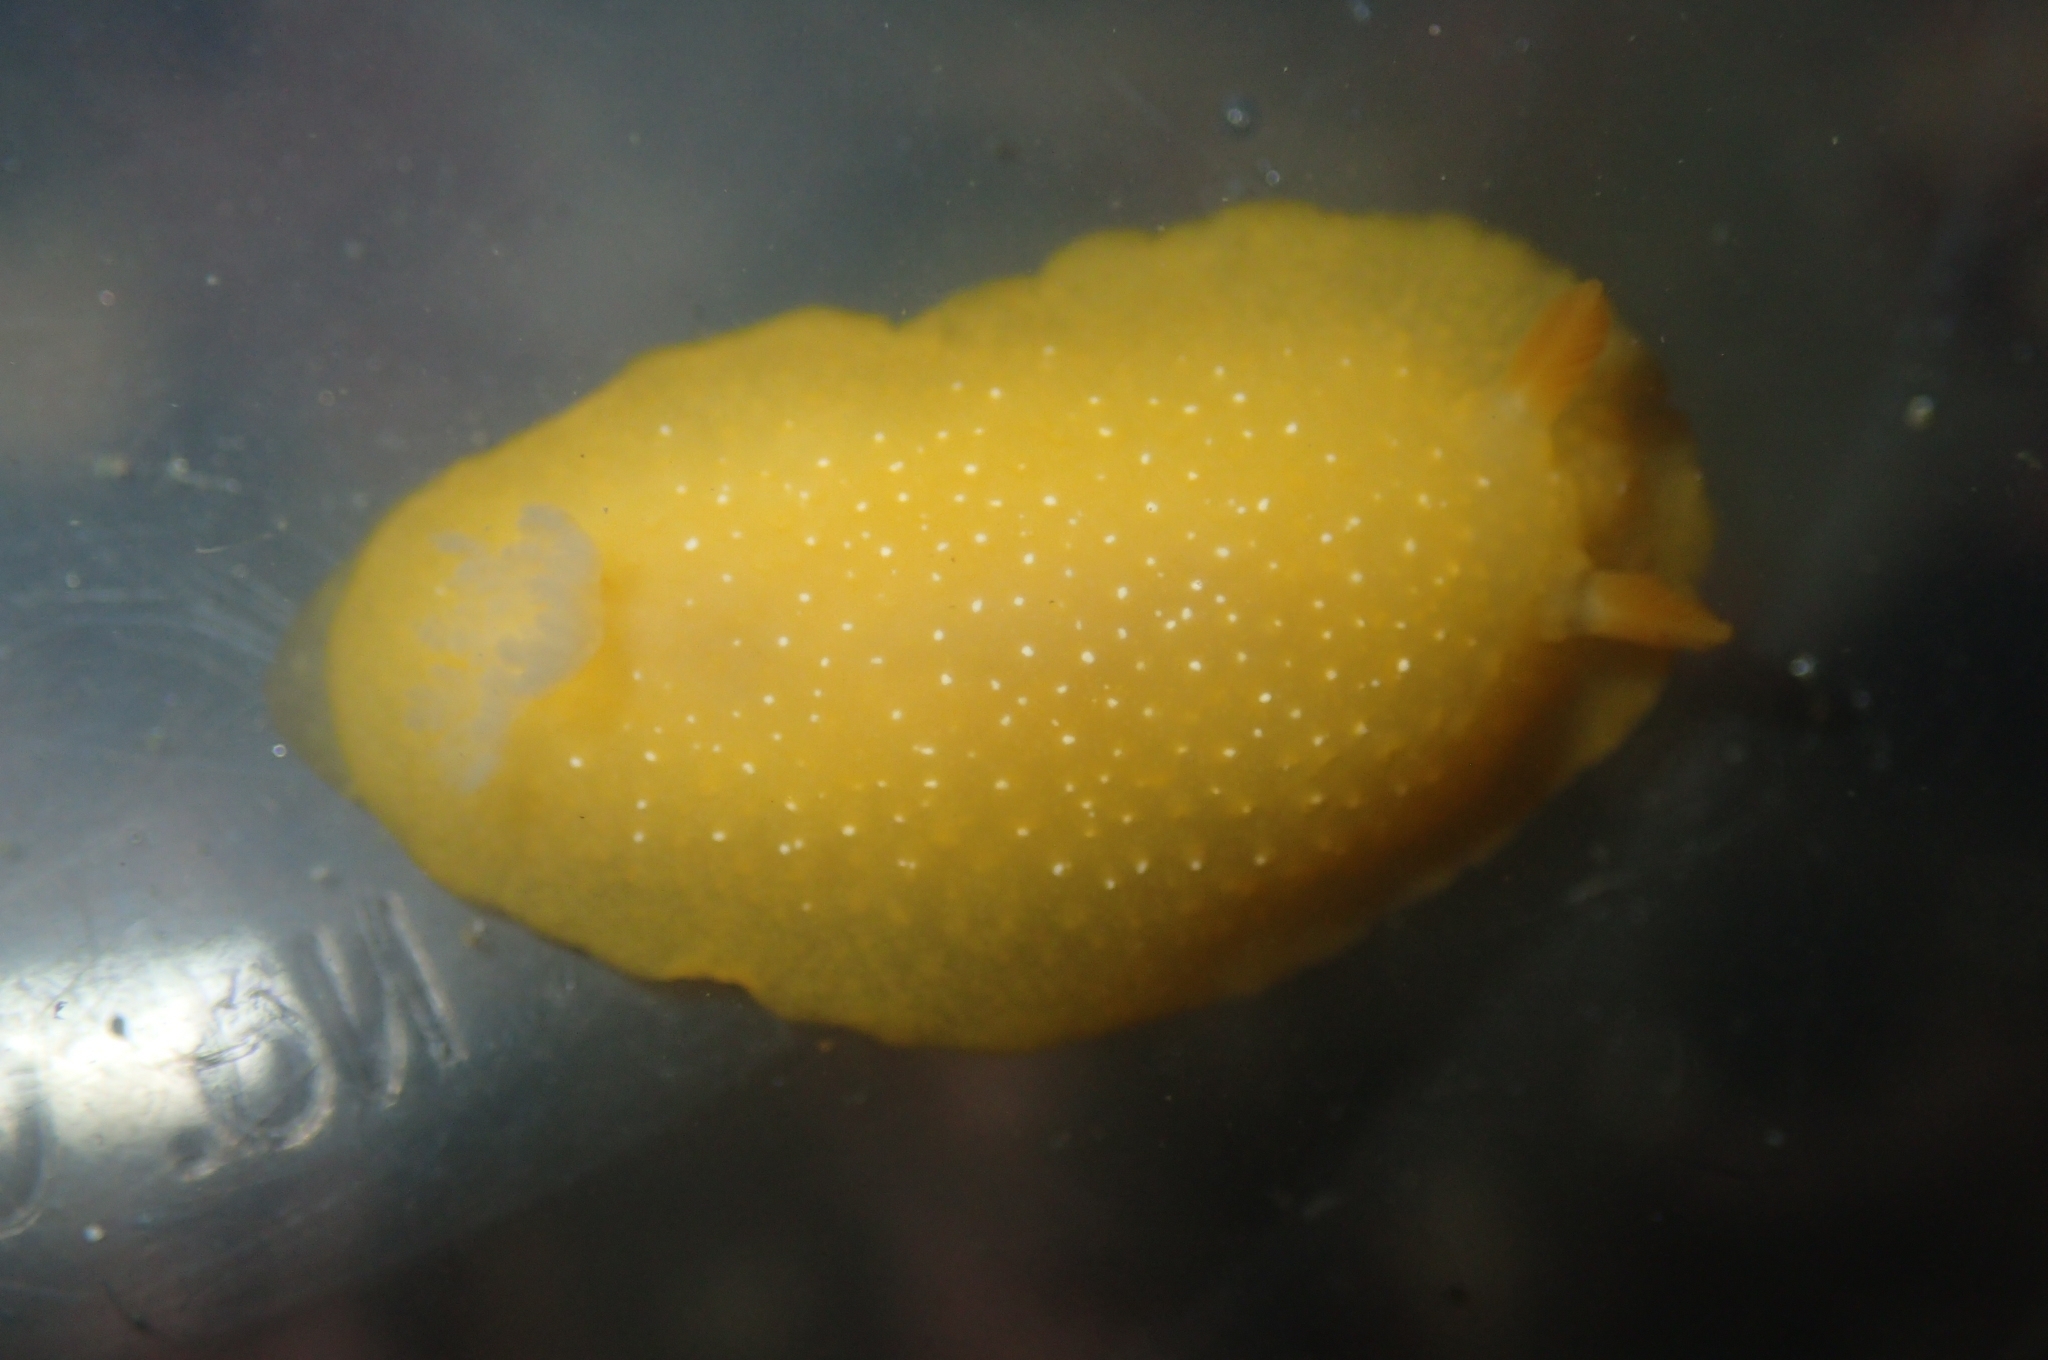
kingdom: Animalia
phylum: Mollusca
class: Gastropoda
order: Nudibranchia
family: Dendrodorididae
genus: Doriopsilla
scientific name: Doriopsilla fulva
